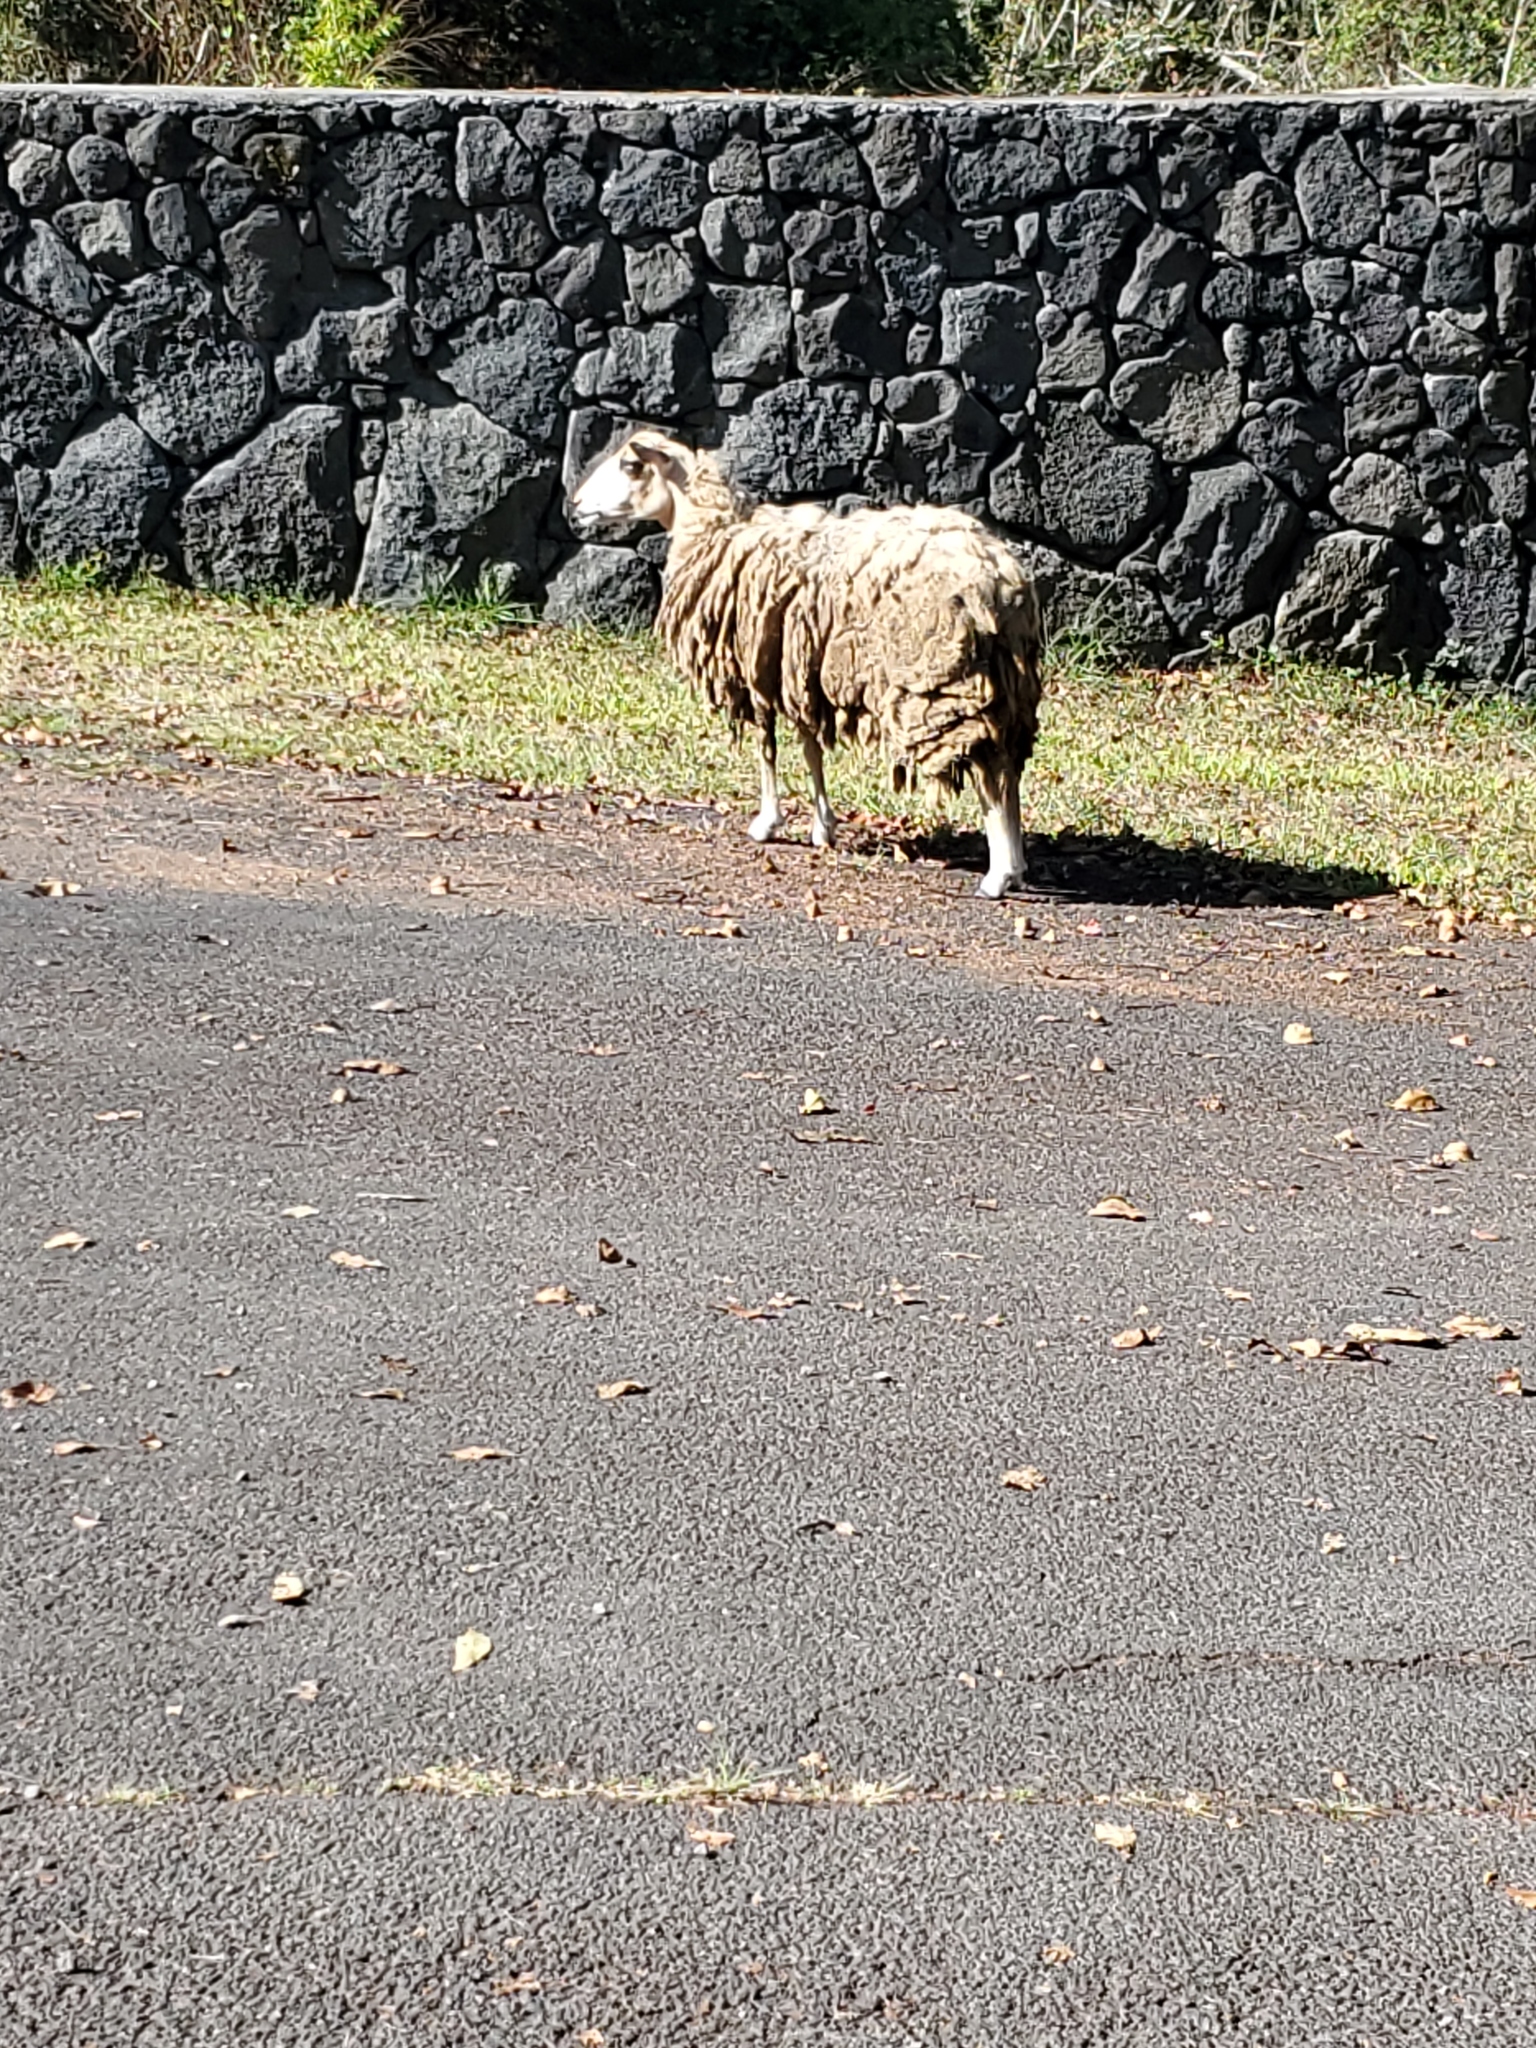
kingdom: Animalia
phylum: Chordata
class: Mammalia
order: Artiodactyla
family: Bovidae
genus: Ovis
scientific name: Ovis aries
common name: Domestic sheep
